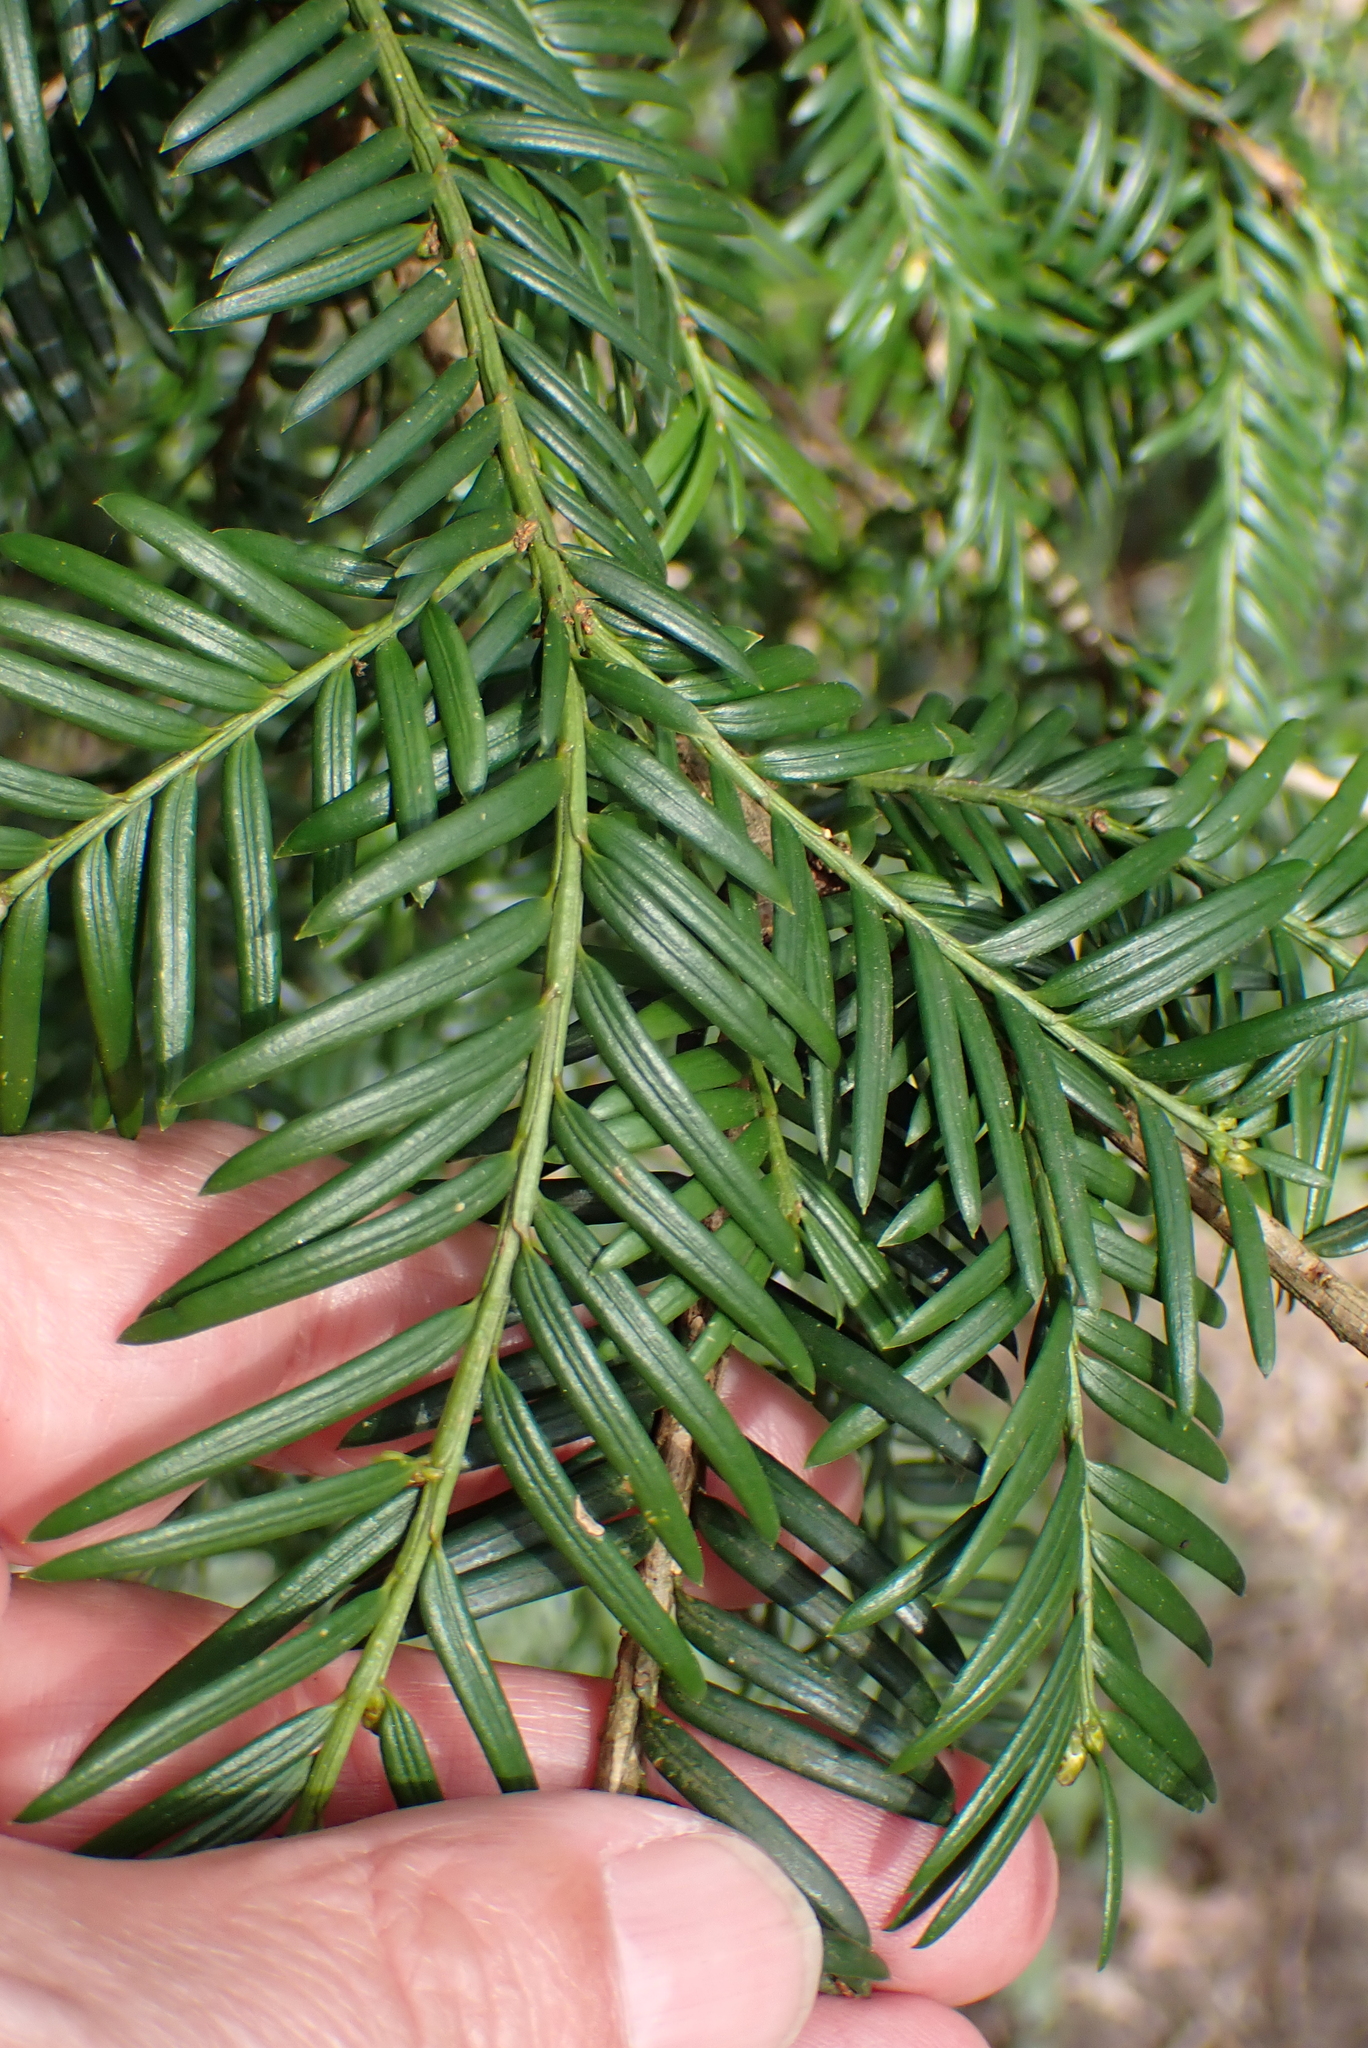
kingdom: Plantae
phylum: Tracheophyta
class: Pinopsida
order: Pinales
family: Taxaceae
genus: Taxus
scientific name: Taxus baccata
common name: Yew
